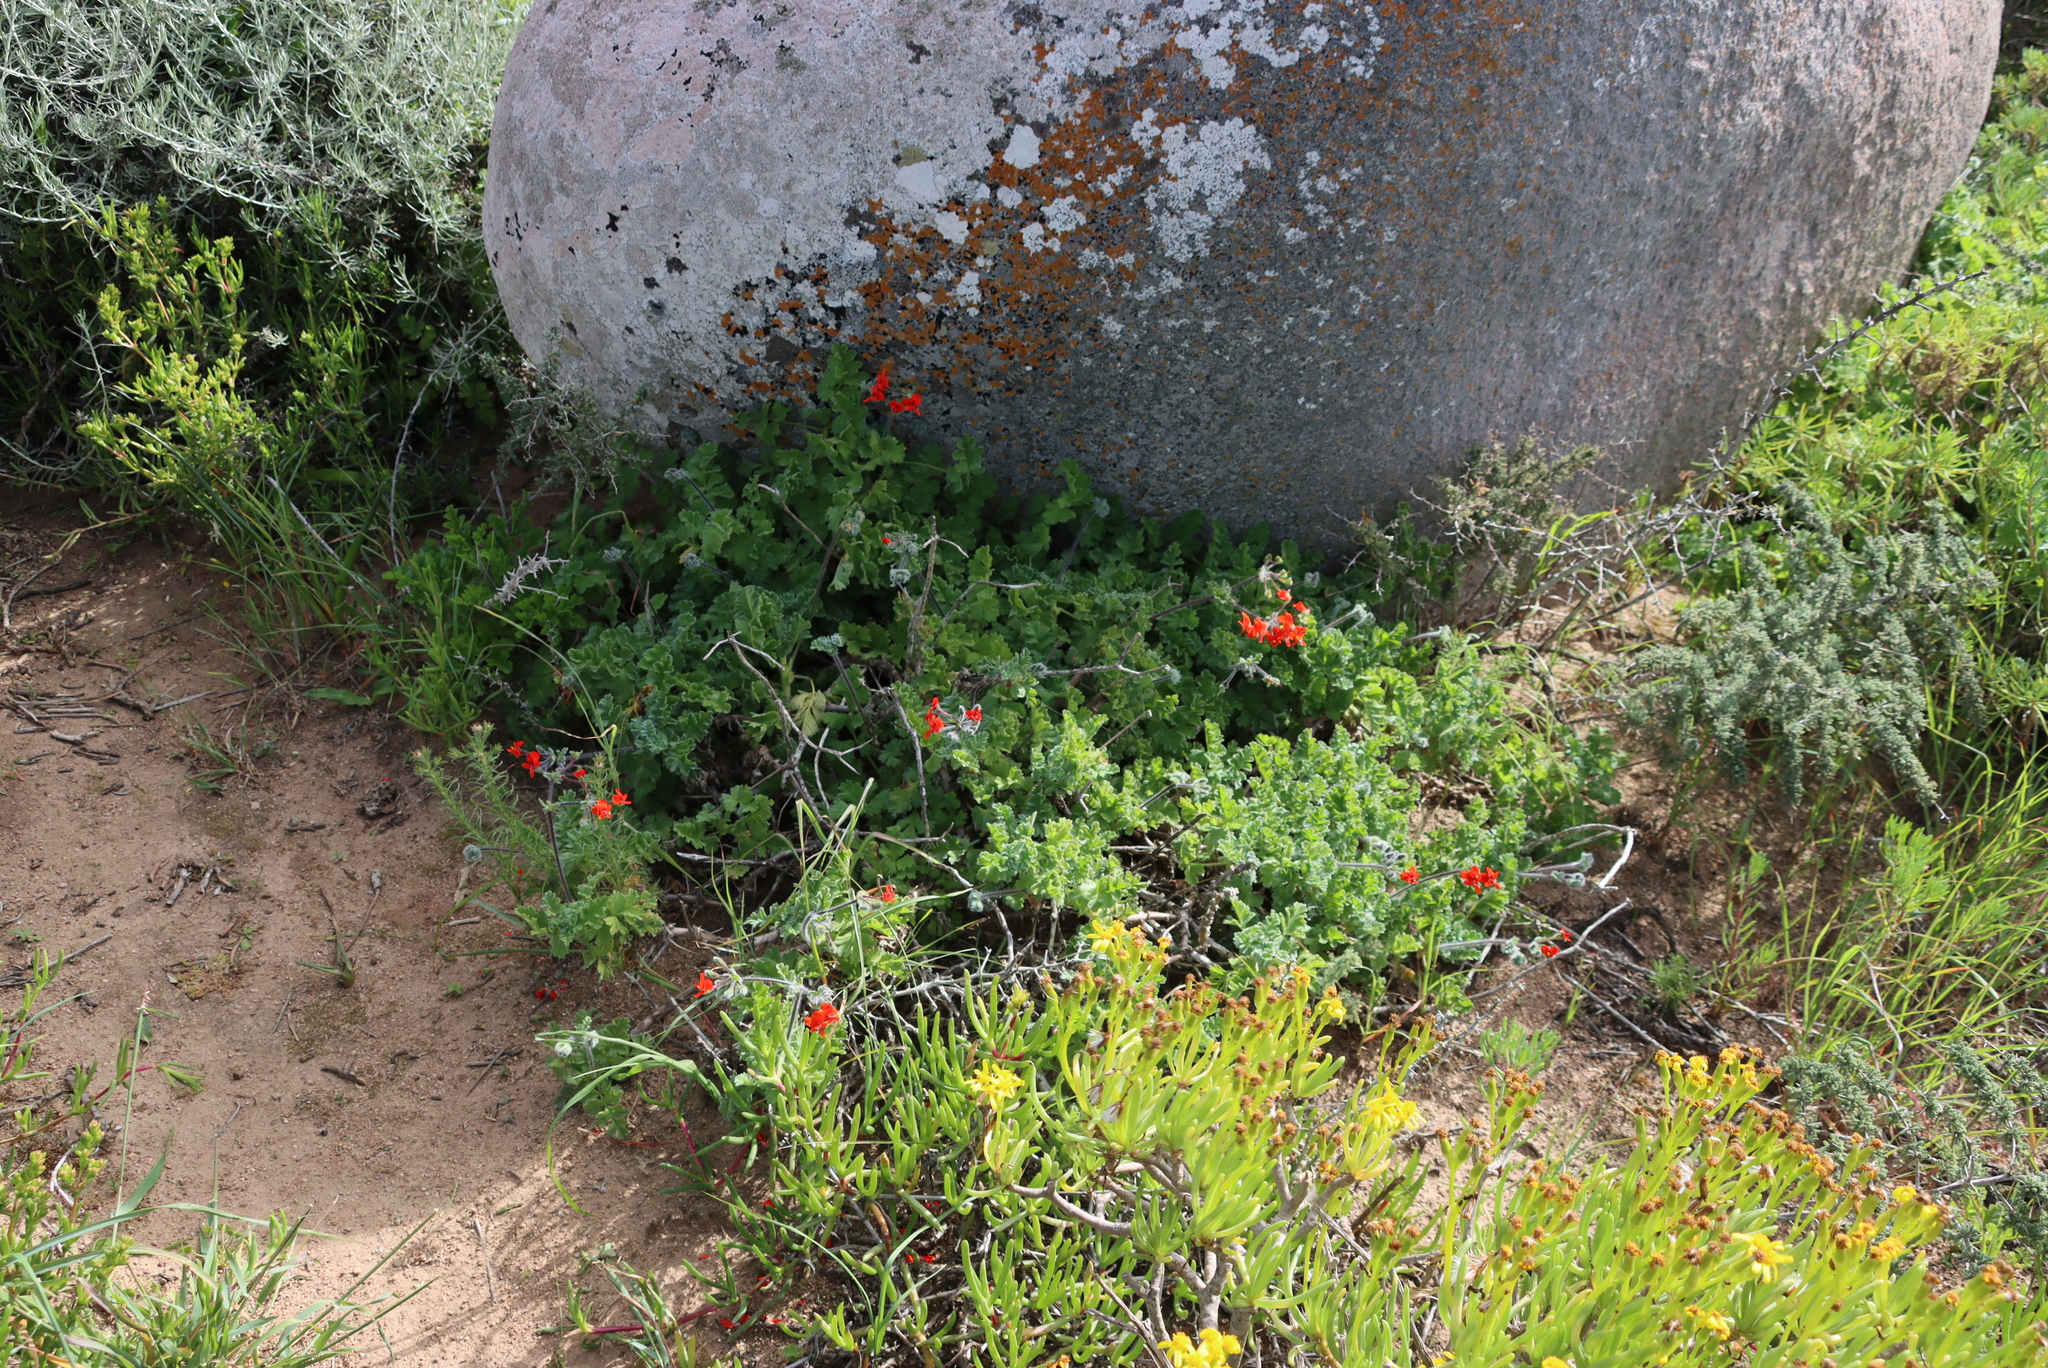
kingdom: Plantae
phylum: Tracheophyta
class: Magnoliopsida
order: Geraniales
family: Geraniaceae
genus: Pelargonium
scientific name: Pelargonium fulgidum
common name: Celandine-leaf pelargonium
